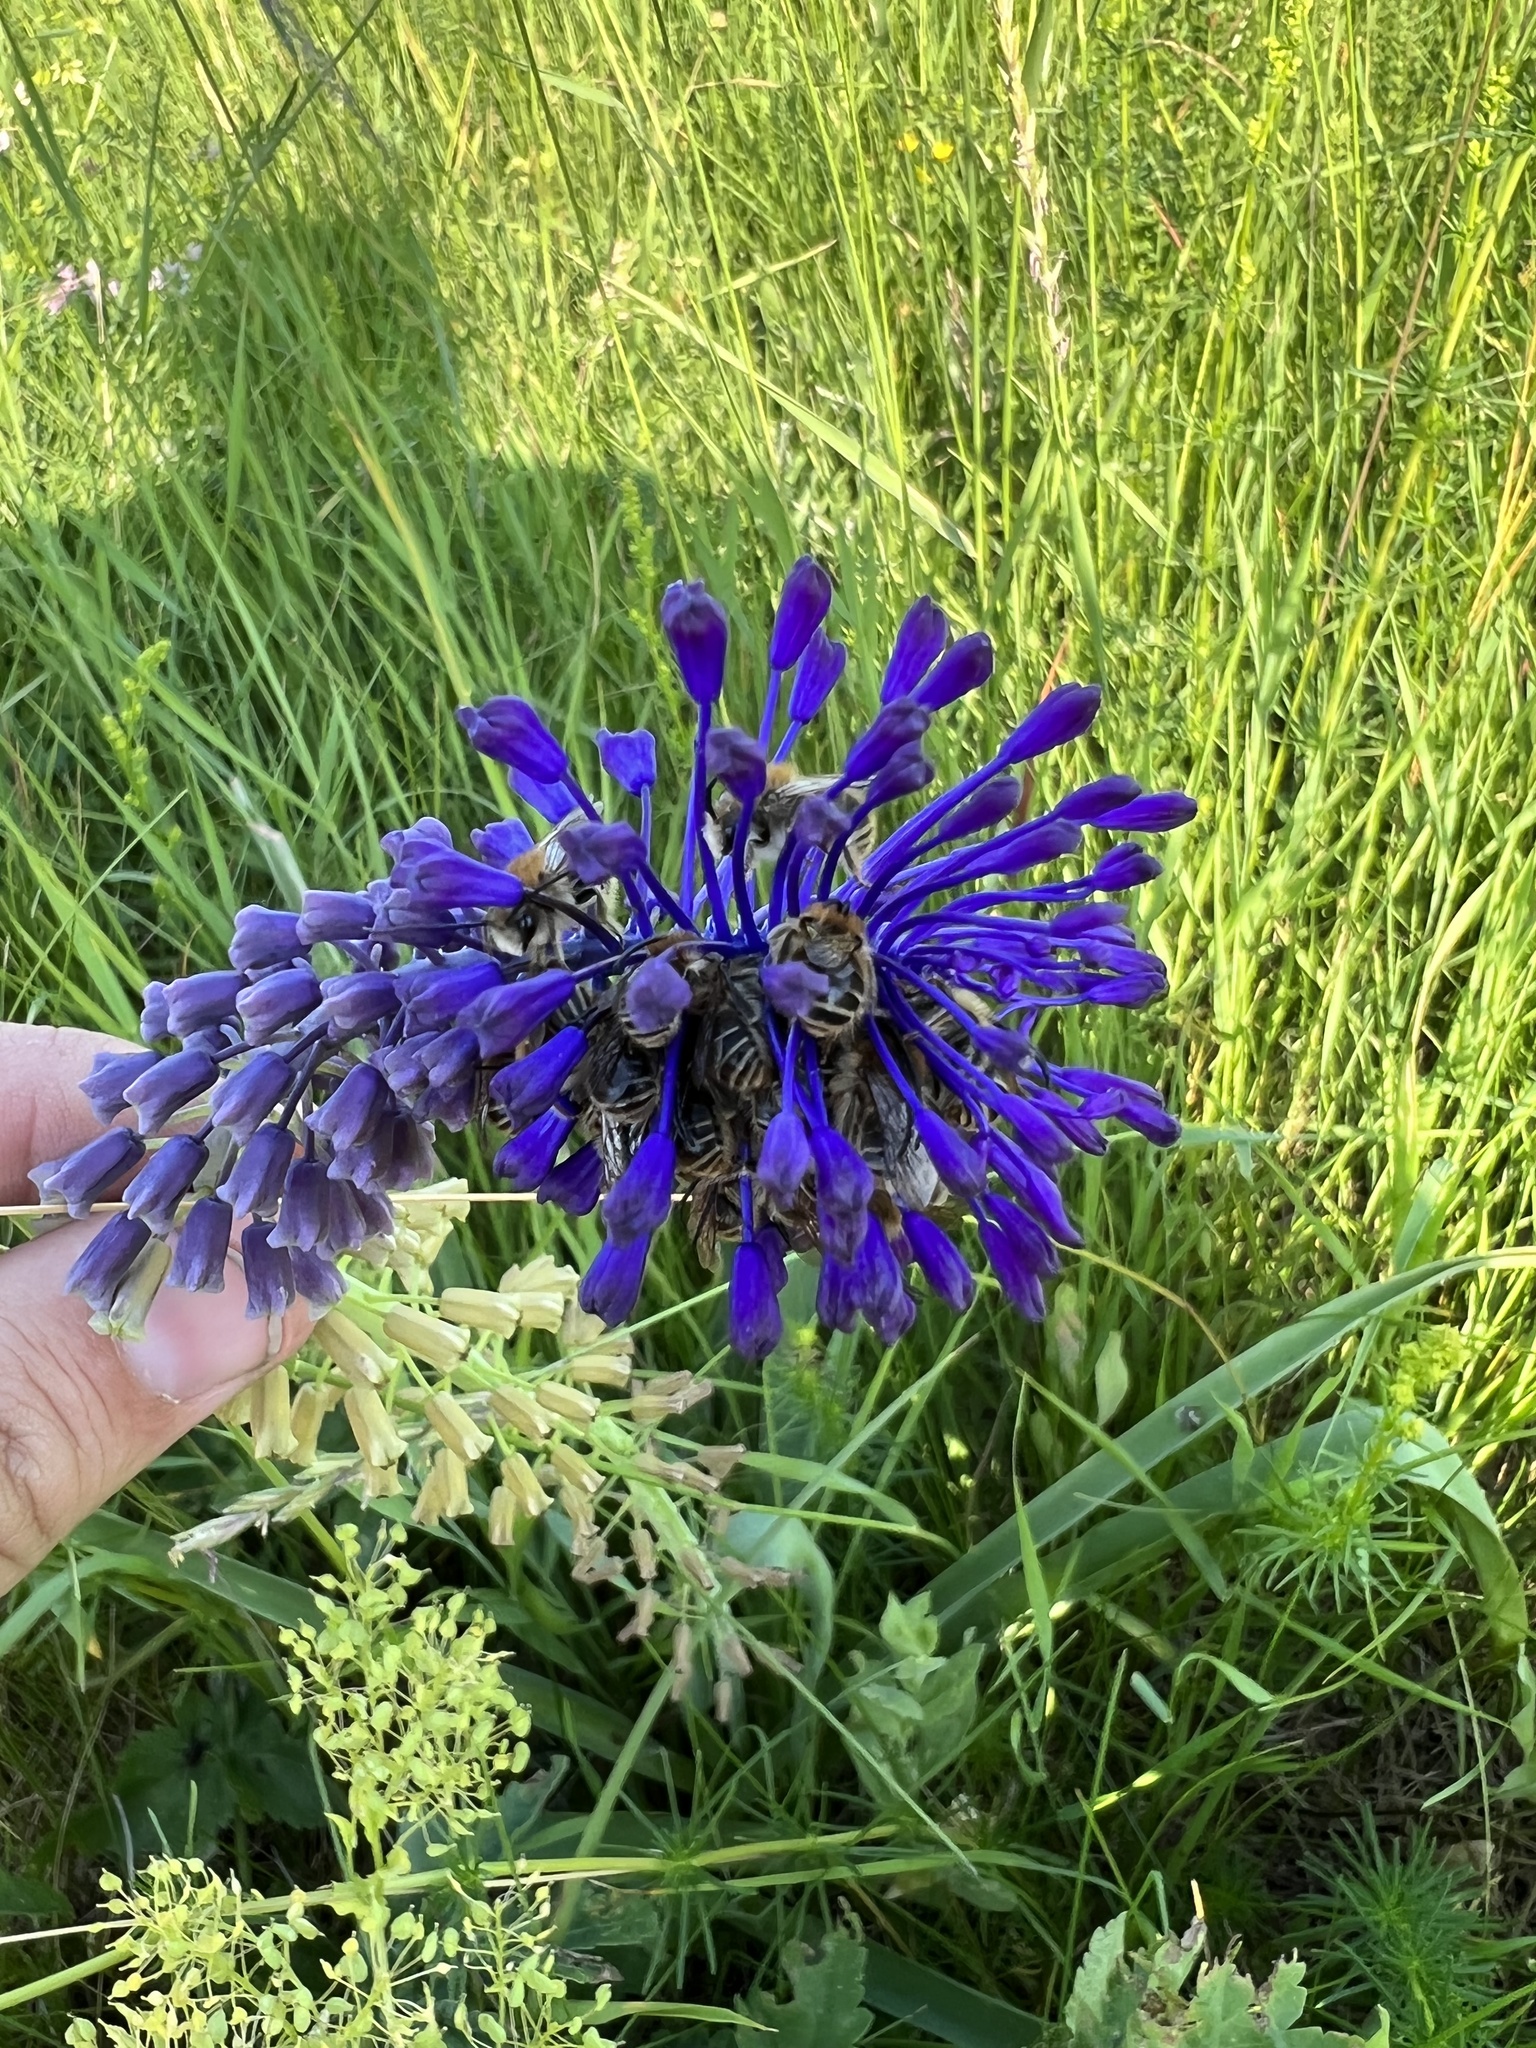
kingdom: Plantae
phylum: Tracheophyta
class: Liliopsida
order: Asparagales
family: Asparagaceae
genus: Muscari
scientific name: Muscari comosum
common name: Tassel hyacinth
